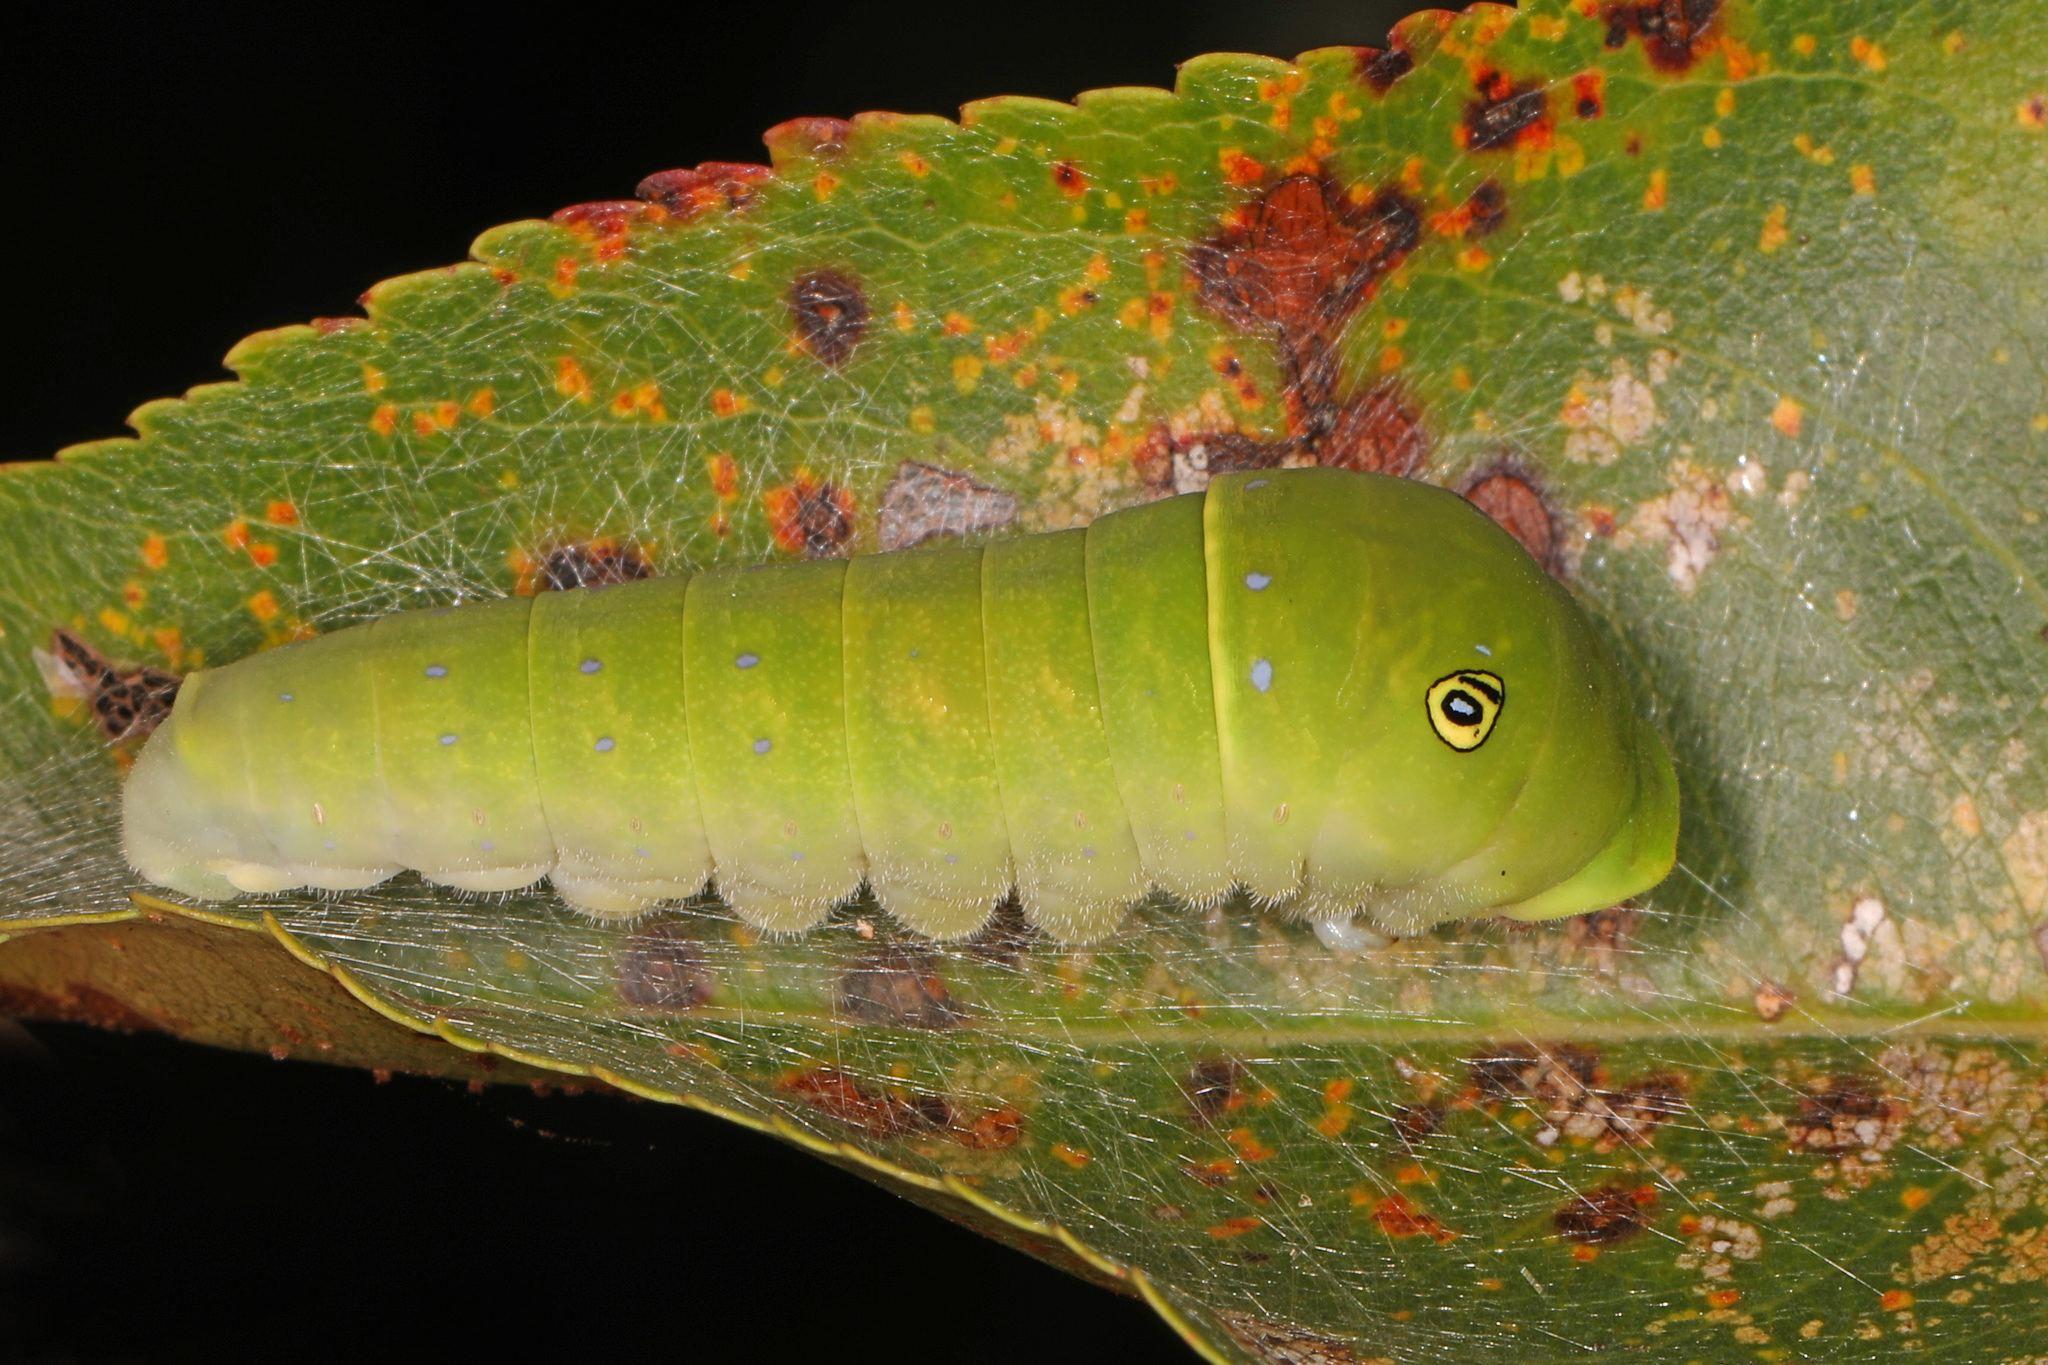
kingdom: Animalia
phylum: Arthropoda
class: Insecta
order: Lepidoptera
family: Papilionidae
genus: Papilio
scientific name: Papilio glaucus
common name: Tiger swallowtail
